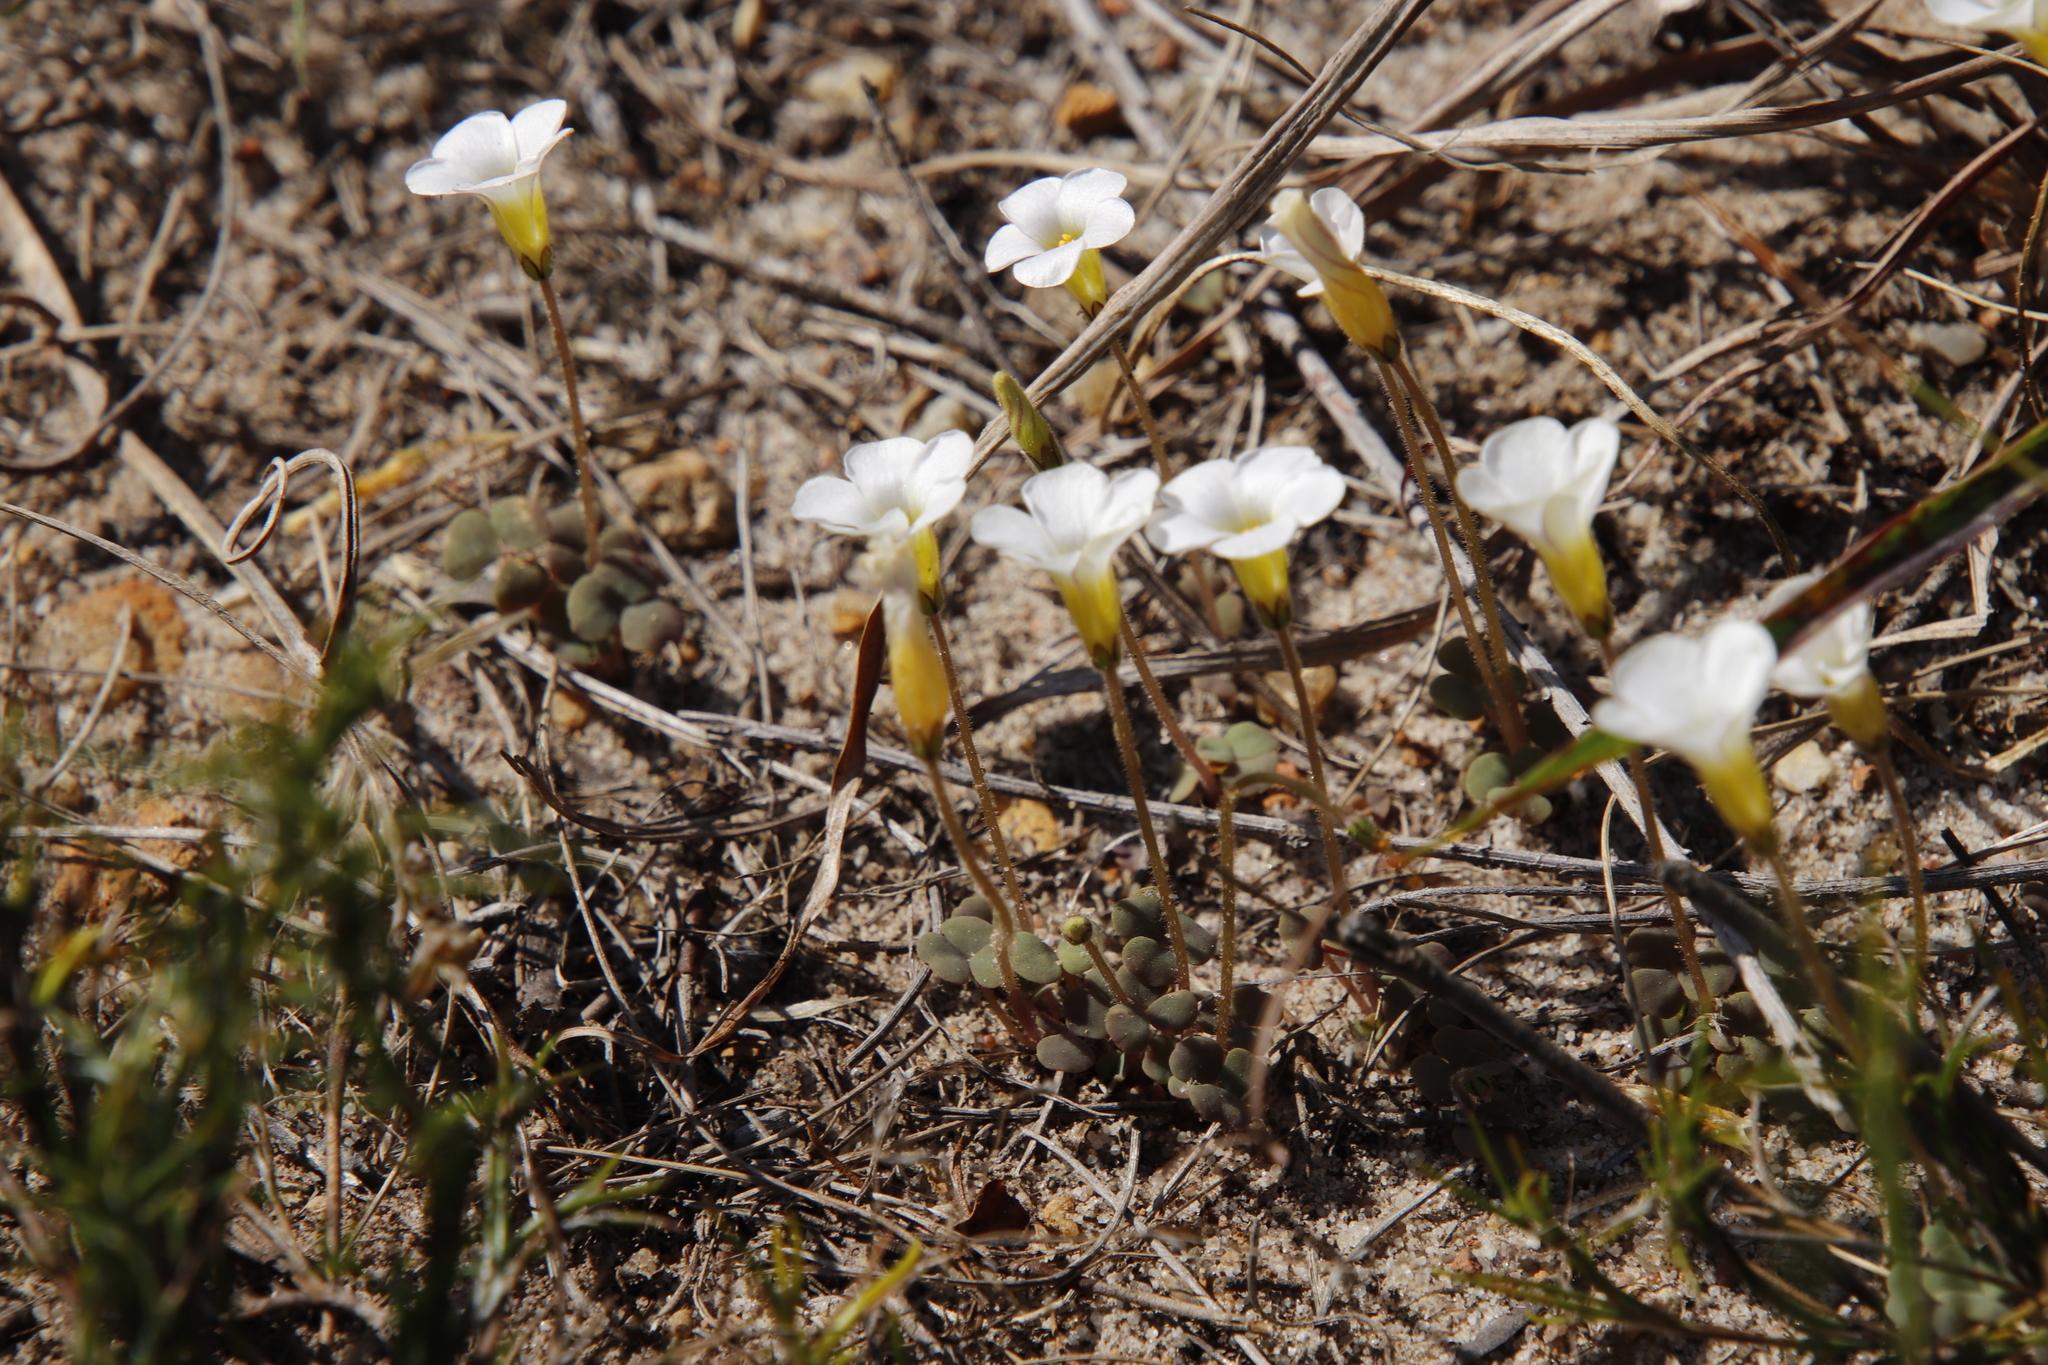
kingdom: Plantae
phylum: Tracheophyta
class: Magnoliopsida
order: Oxalidales
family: Oxalidaceae
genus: Oxalis
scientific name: Oxalis punctata
